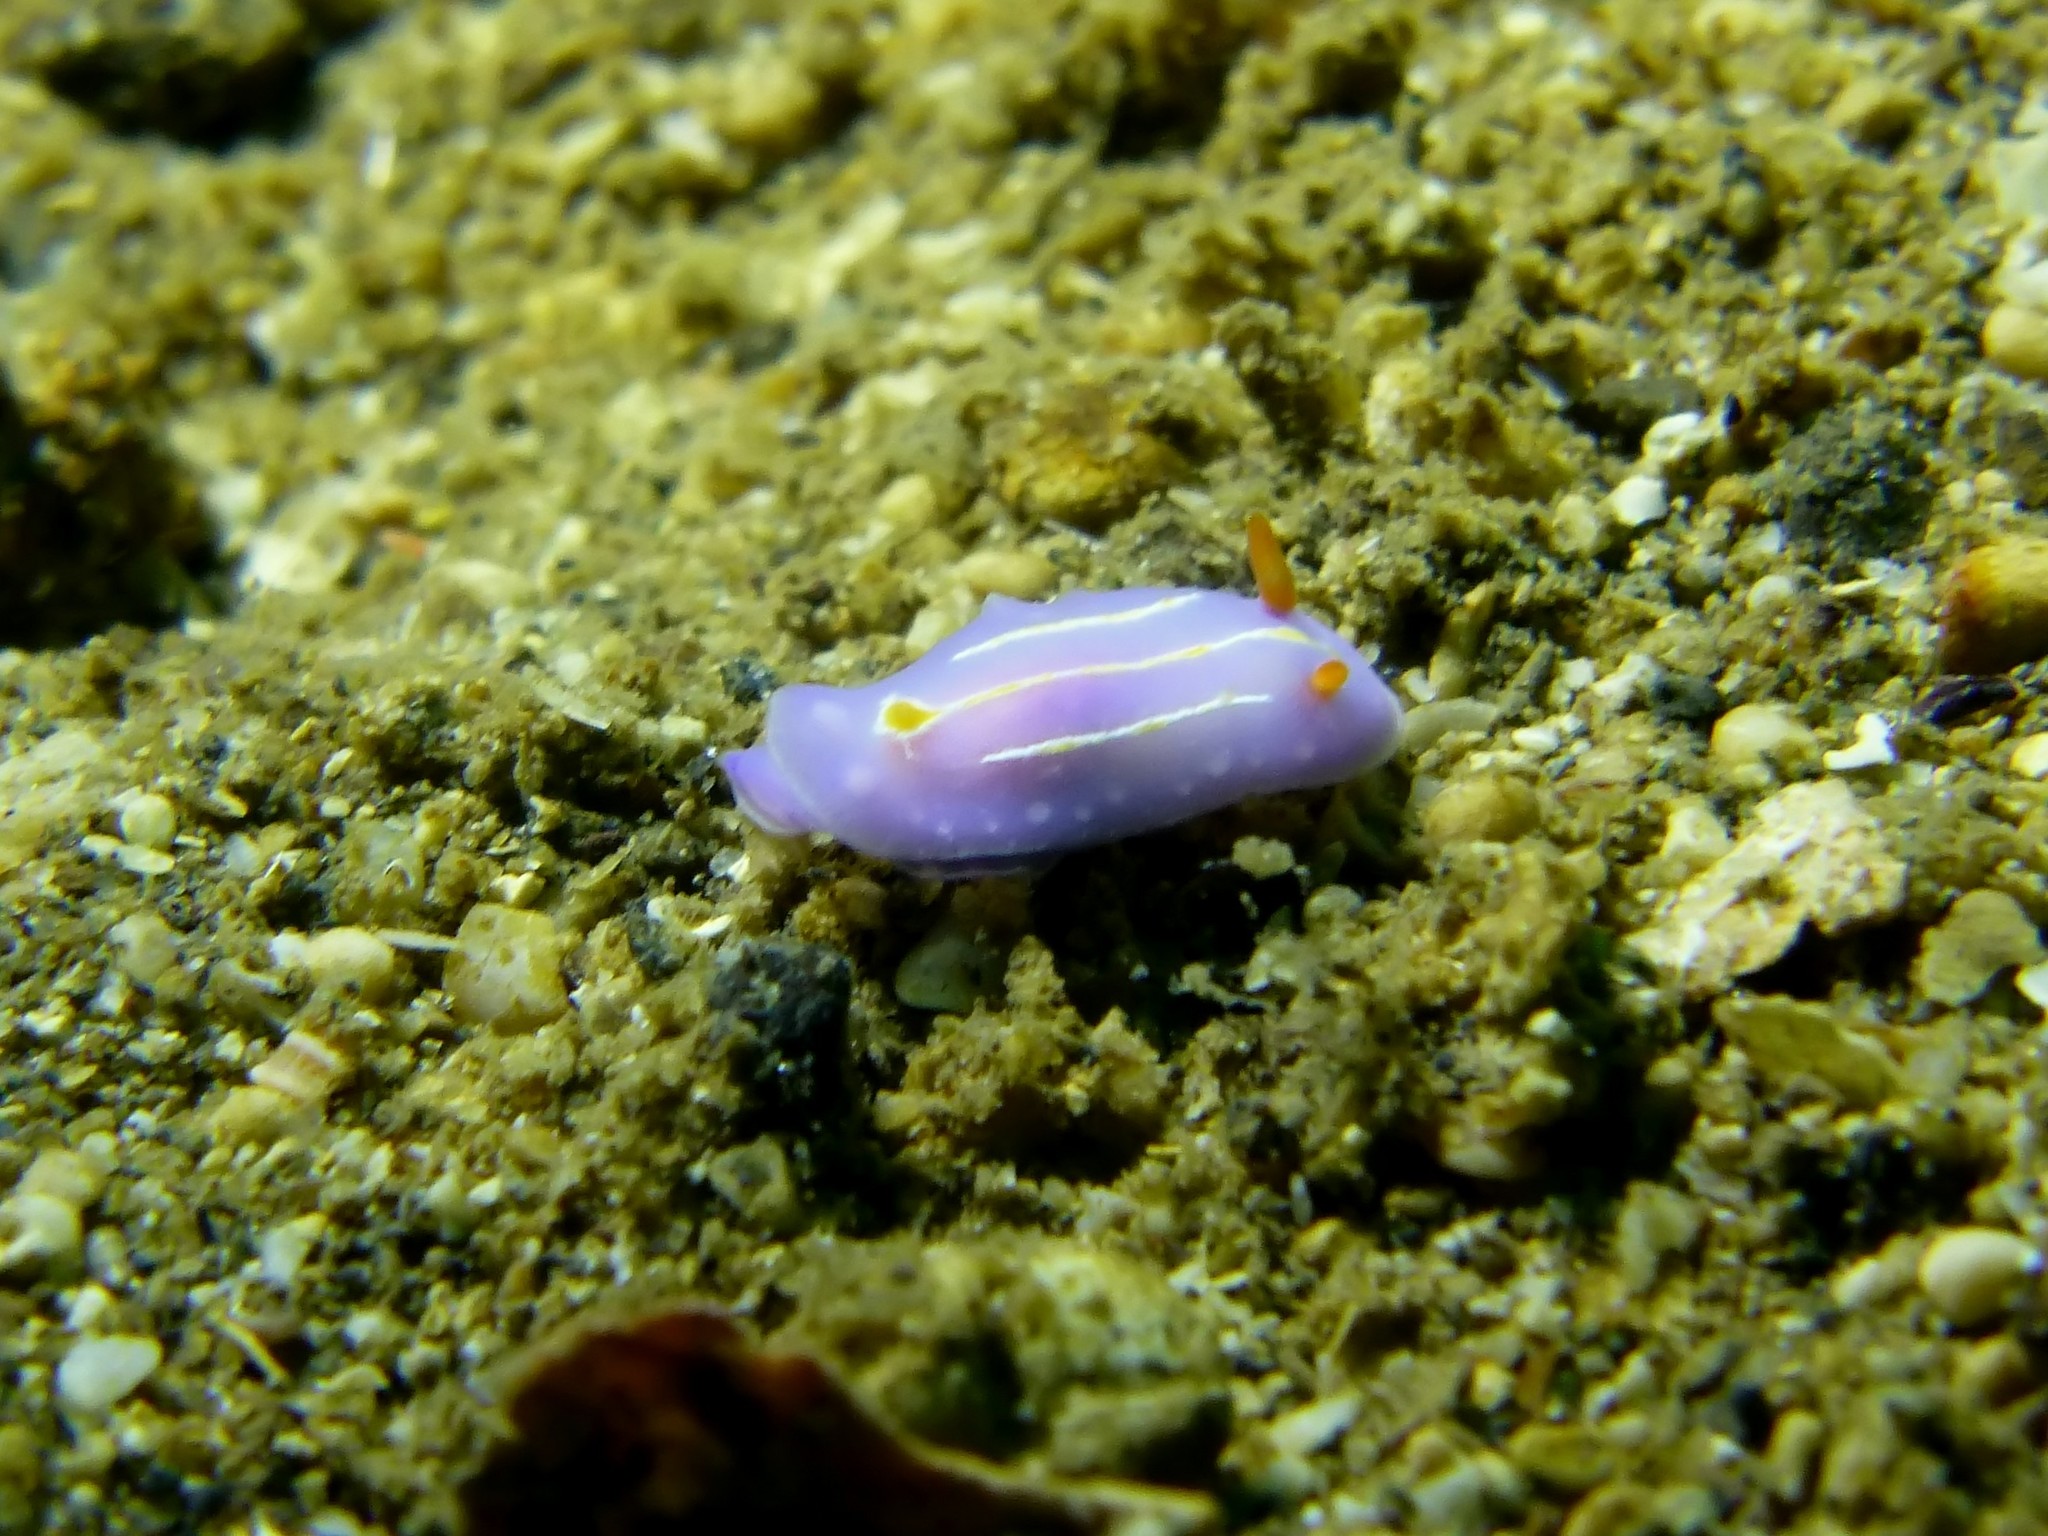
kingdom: Animalia
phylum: Mollusca
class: Gastropoda
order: Nudibranchia
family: Chromodorididae
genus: Mexichromis
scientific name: Mexichromis trilineata
